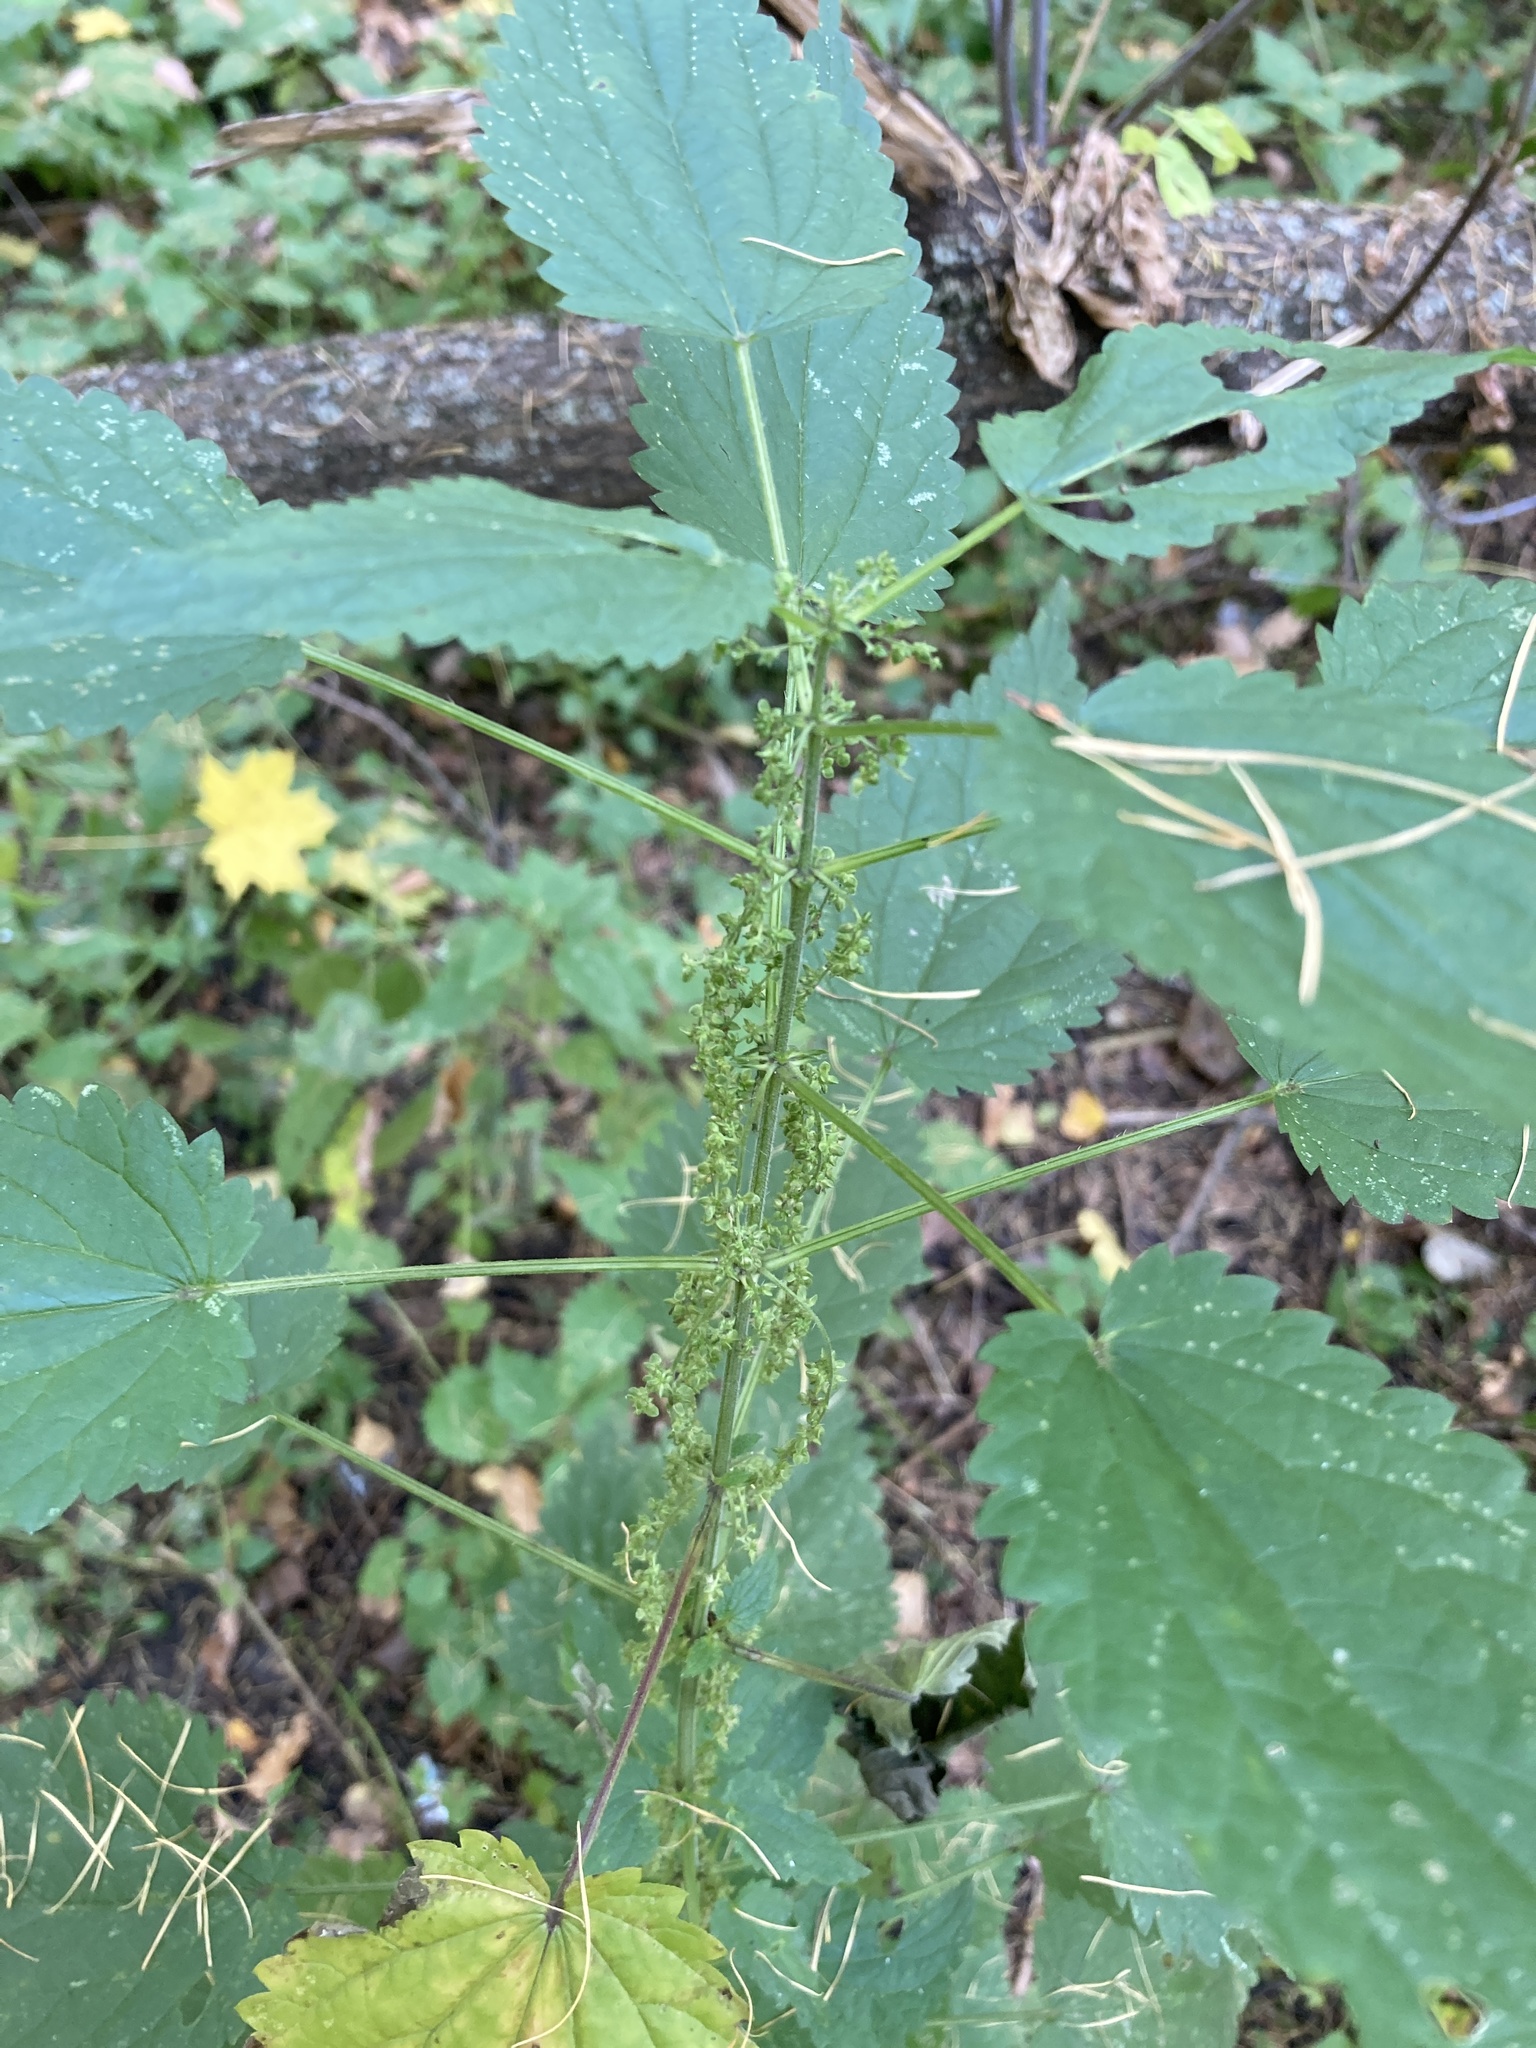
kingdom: Plantae
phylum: Tracheophyta
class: Magnoliopsida
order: Rosales
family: Urticaceae
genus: Urtica
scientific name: Urtica dioica
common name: Common nettle
